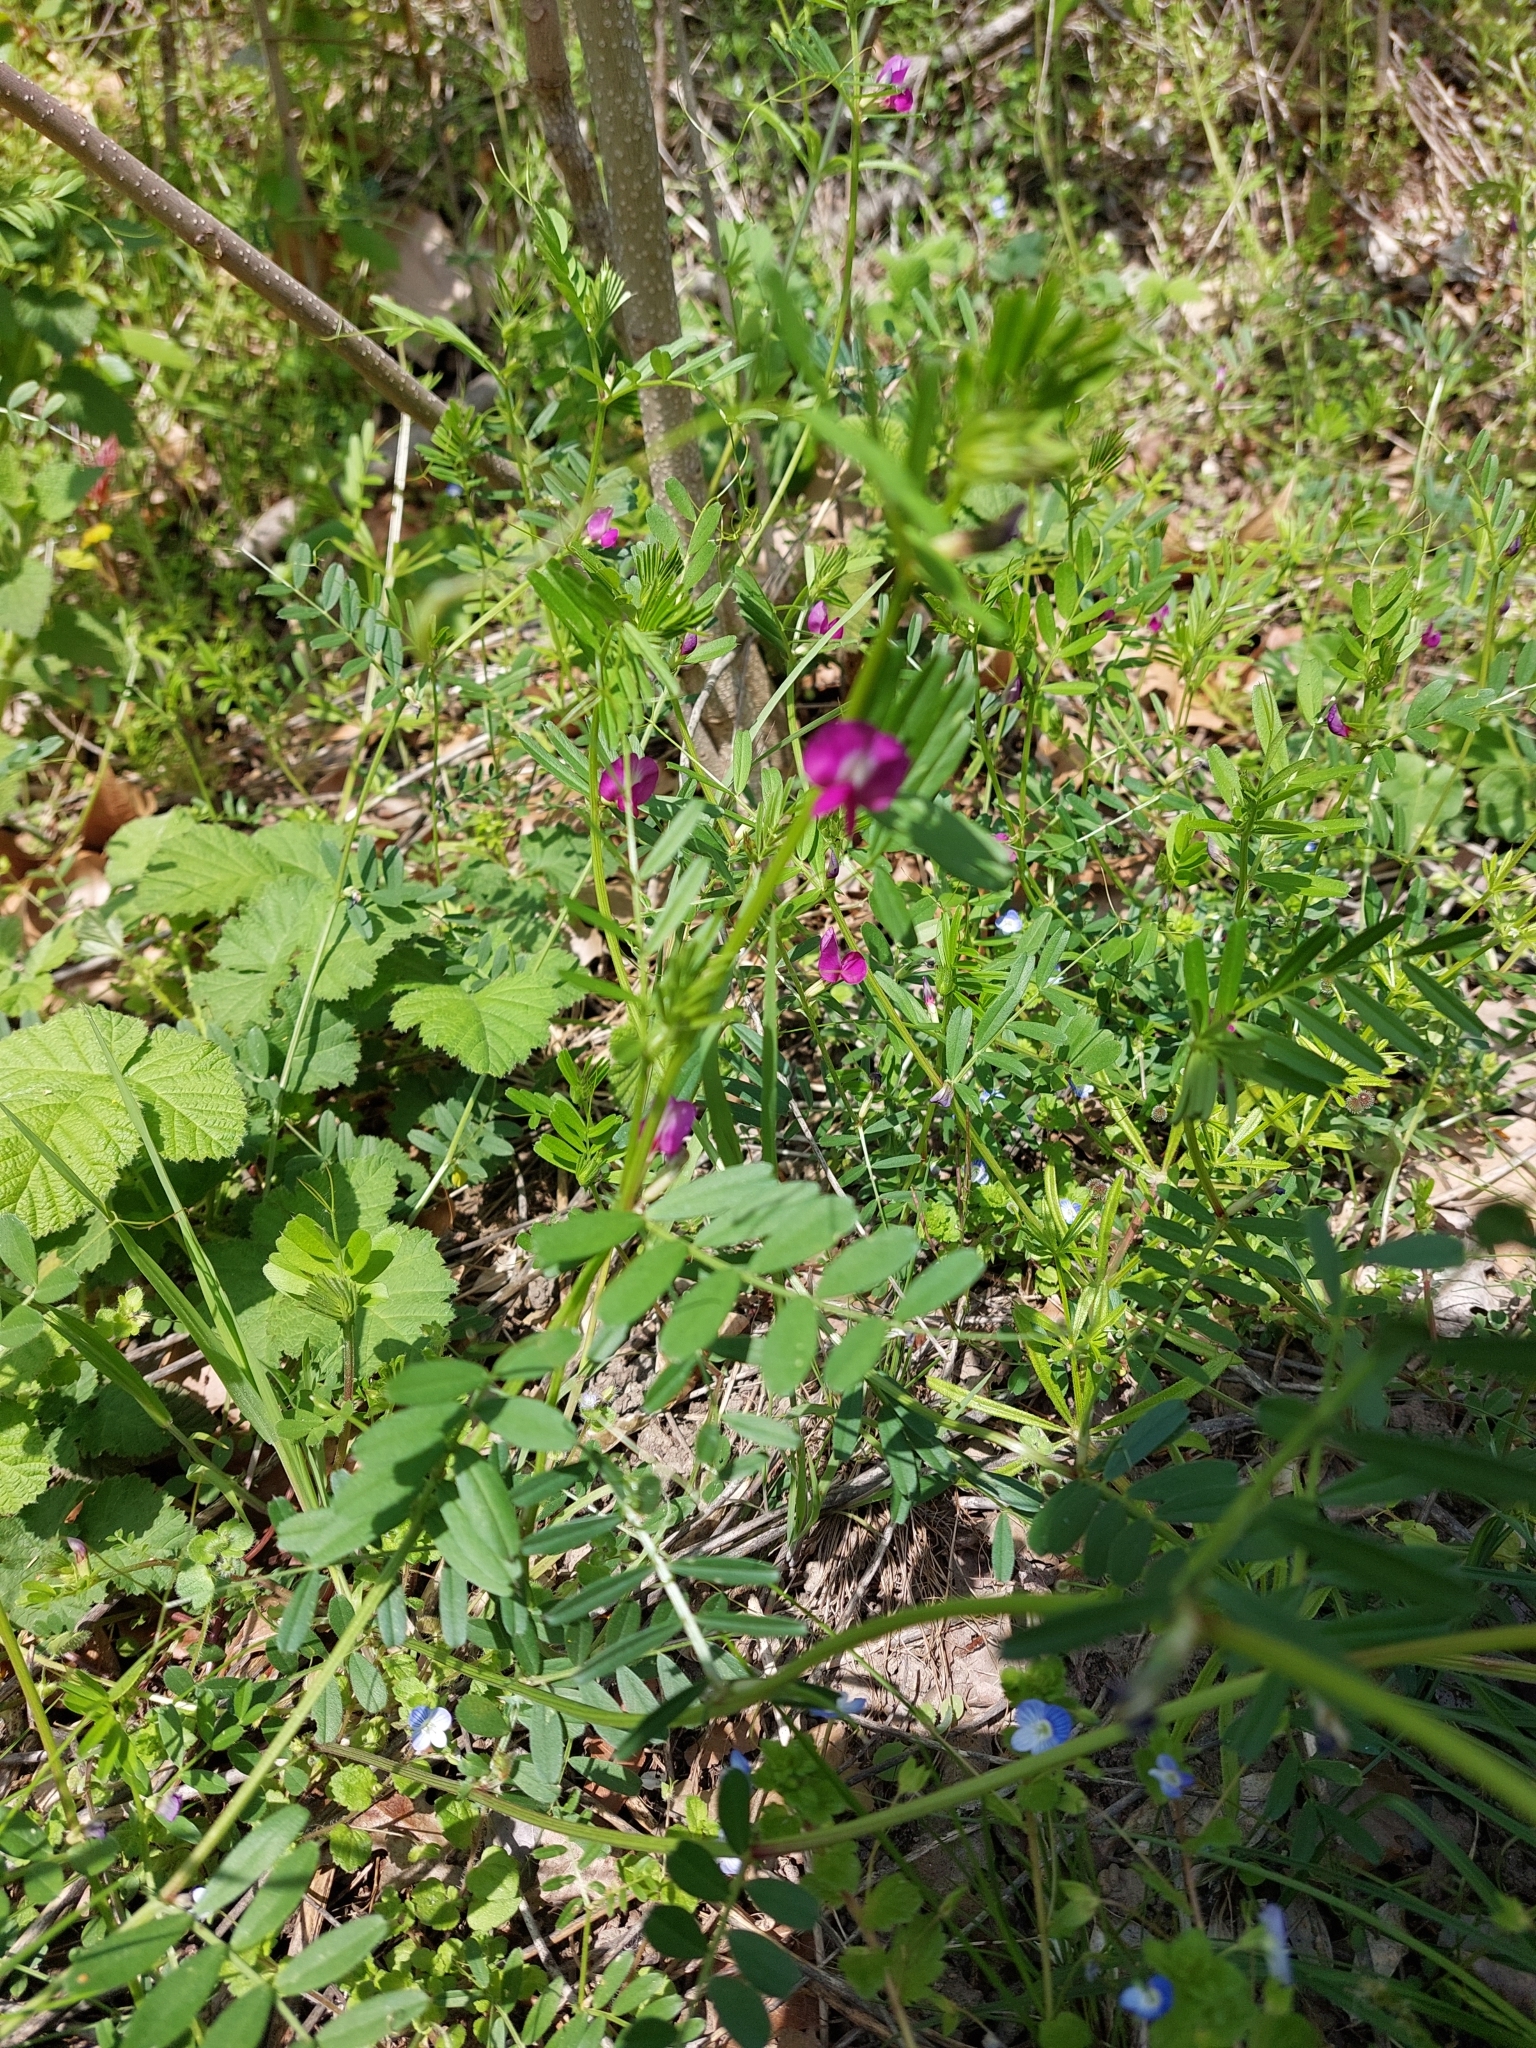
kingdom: Plantae
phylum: Tracheophyta
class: Magnoliopsida
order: Fabales
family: Fabaceae
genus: Vicia
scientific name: Vicia sativa
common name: Garden vetch
